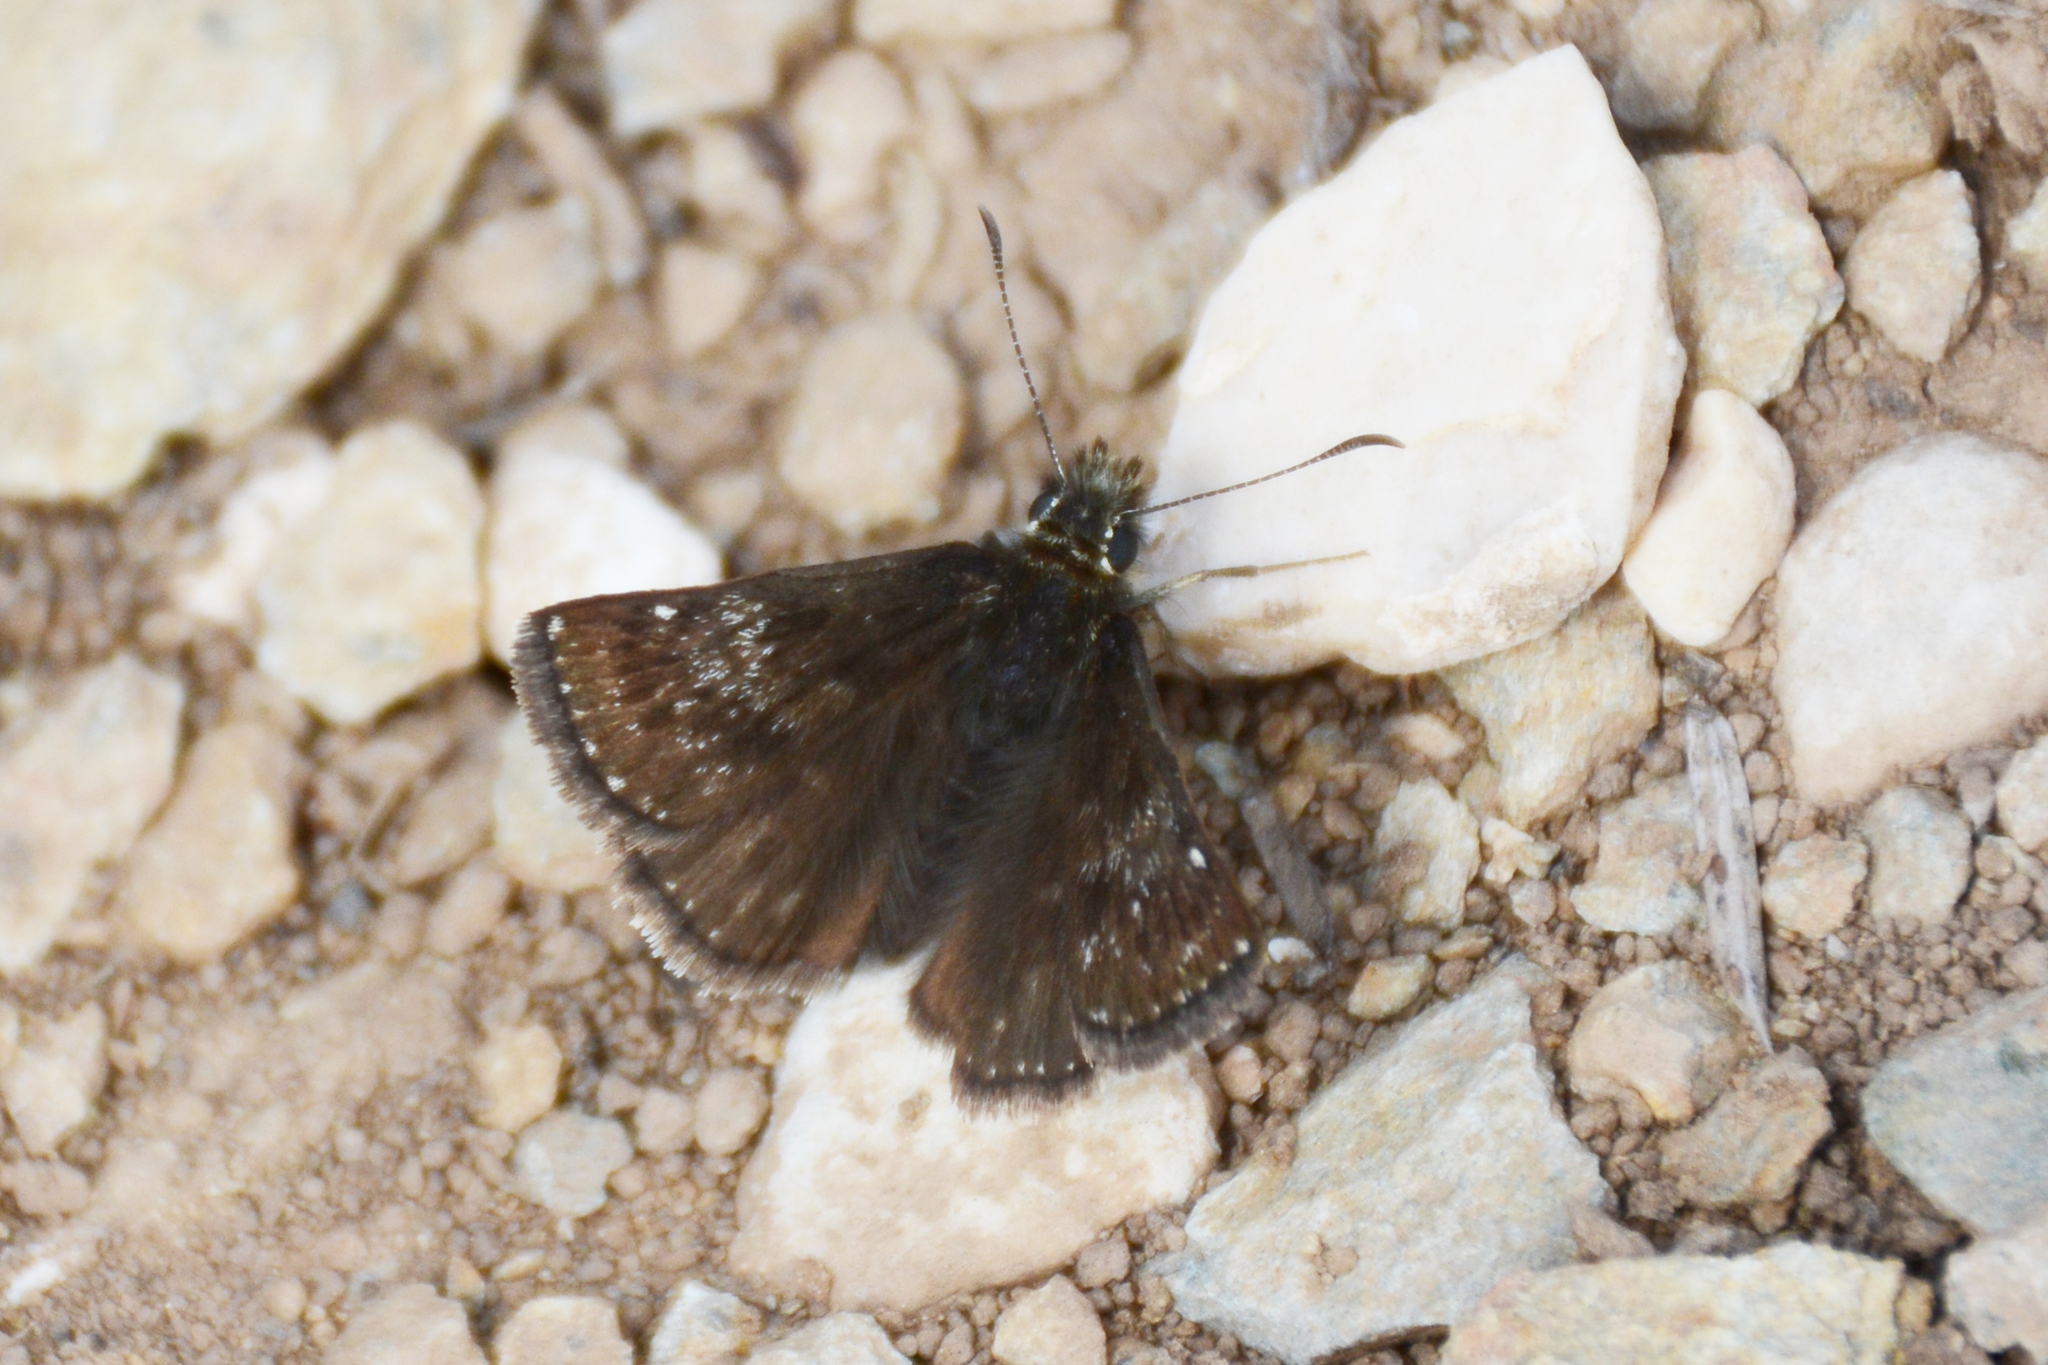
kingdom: Animalia
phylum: Arthropoda
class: Insecta
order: Lepidoptera
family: Hesperiidae
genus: Erynnis
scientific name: Erynnis tages
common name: Dingy skipper
